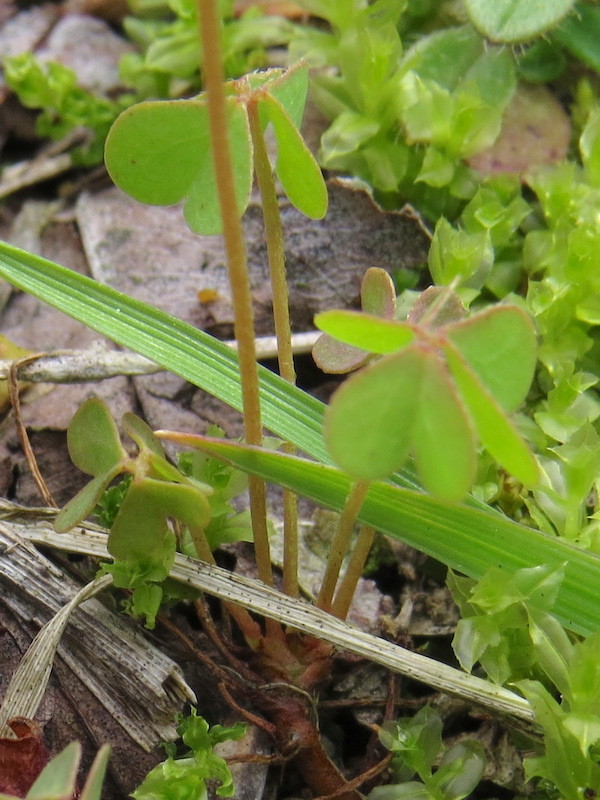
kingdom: Plantae
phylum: Tracheophyta
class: Magnoliopsida
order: Oxalidales
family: Oxalidaceae
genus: Oxalis
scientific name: Oxalis corniculata
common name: Procumbent yellow-sorrel
